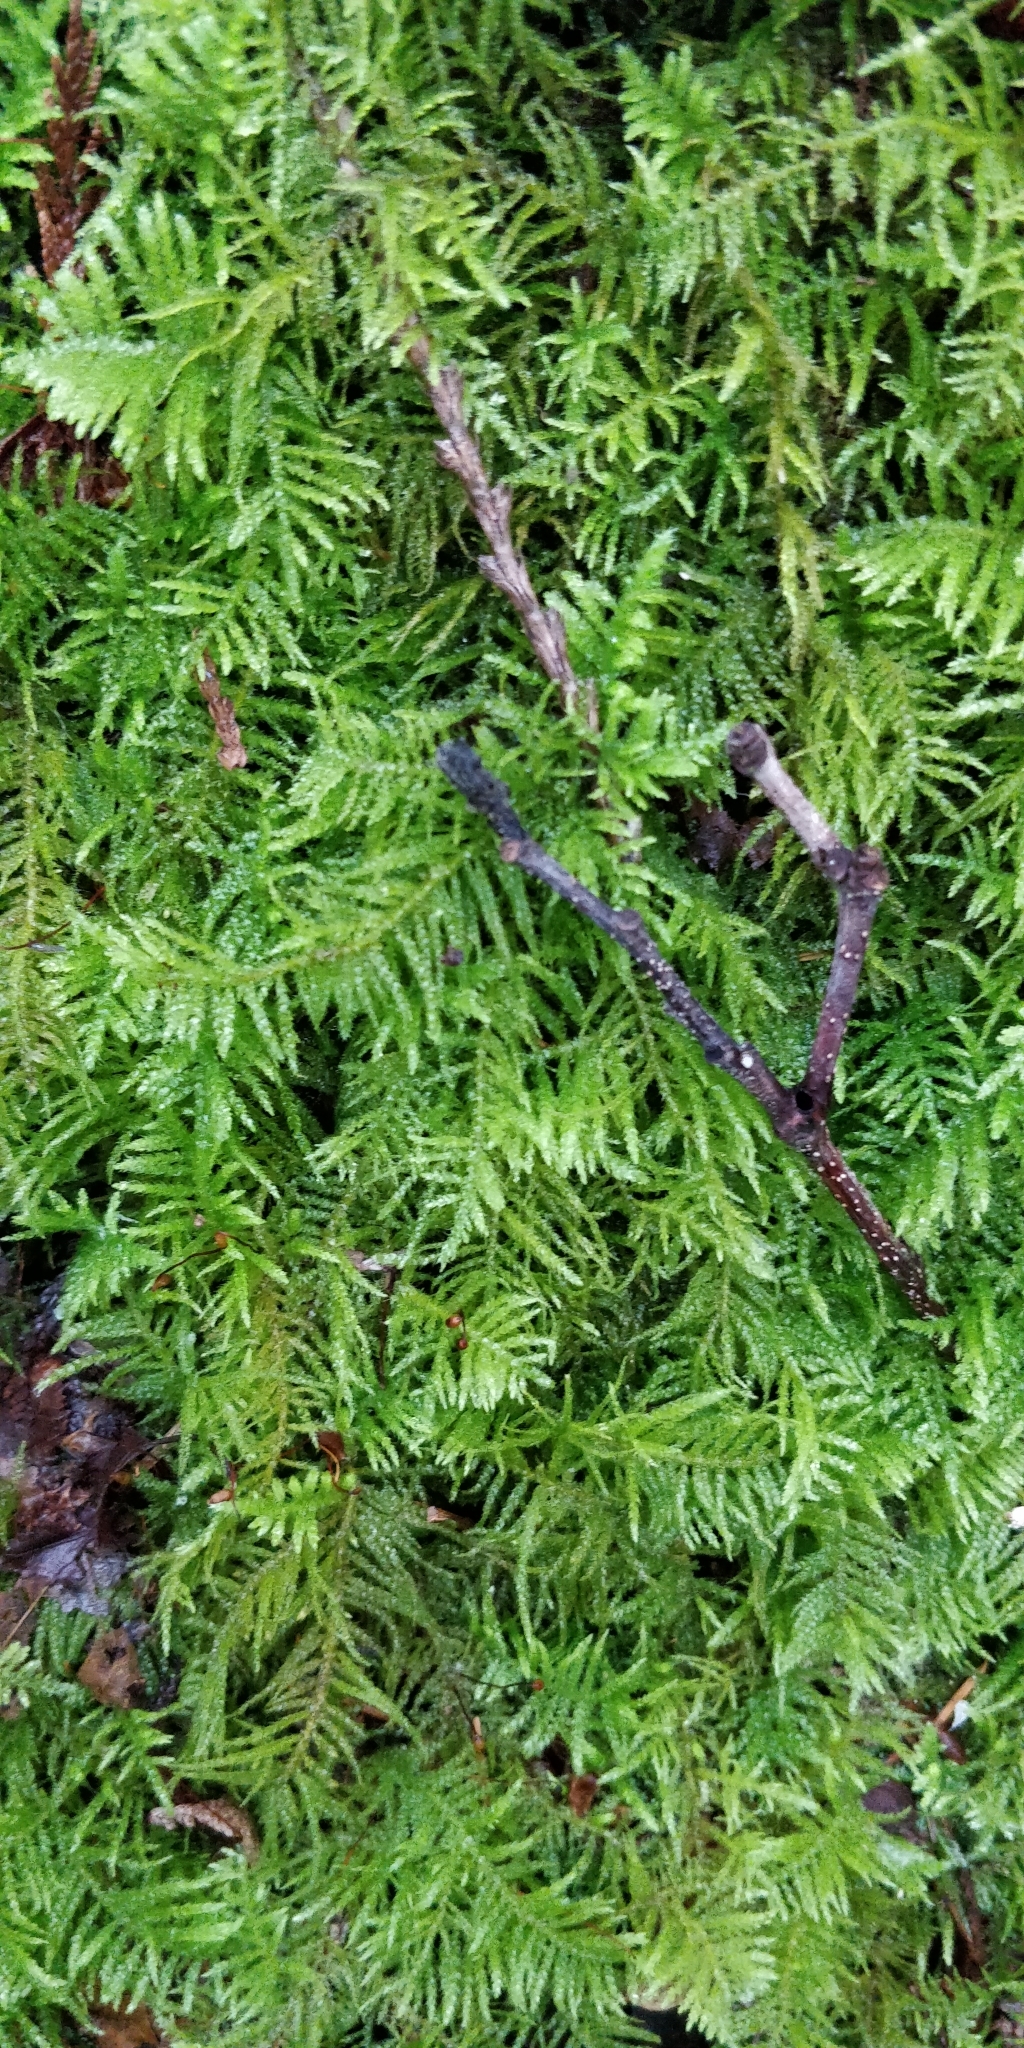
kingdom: Plantae
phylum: Bryophyta
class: Bryopsida
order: Hypnales
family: Brachytheciaceae
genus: Kindbergia
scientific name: Kindbergia oregana
